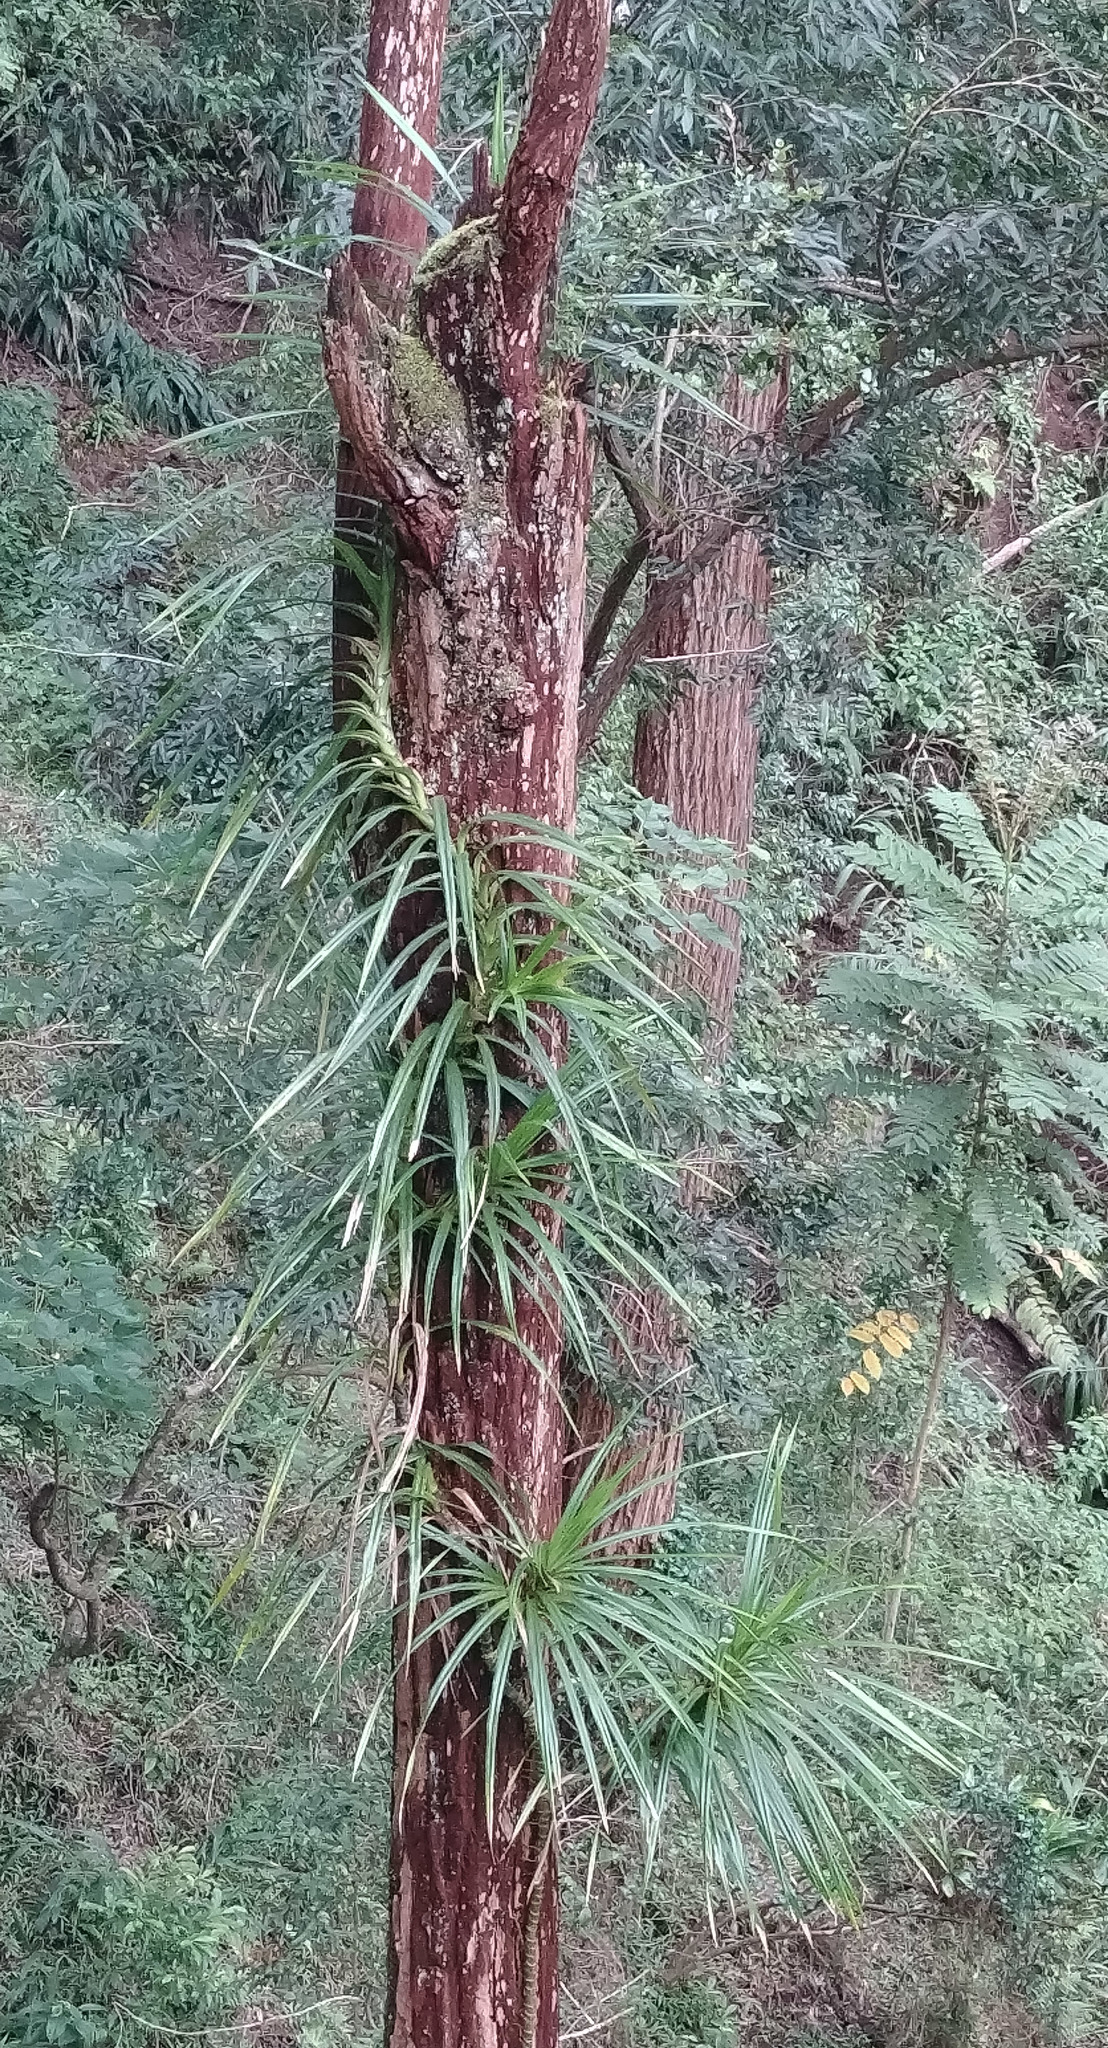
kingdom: Plantae
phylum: Tracheophyta
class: Liliopsida
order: Pandanales
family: Pandanaceae
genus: Freycinetia
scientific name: Freycinetia arborea
